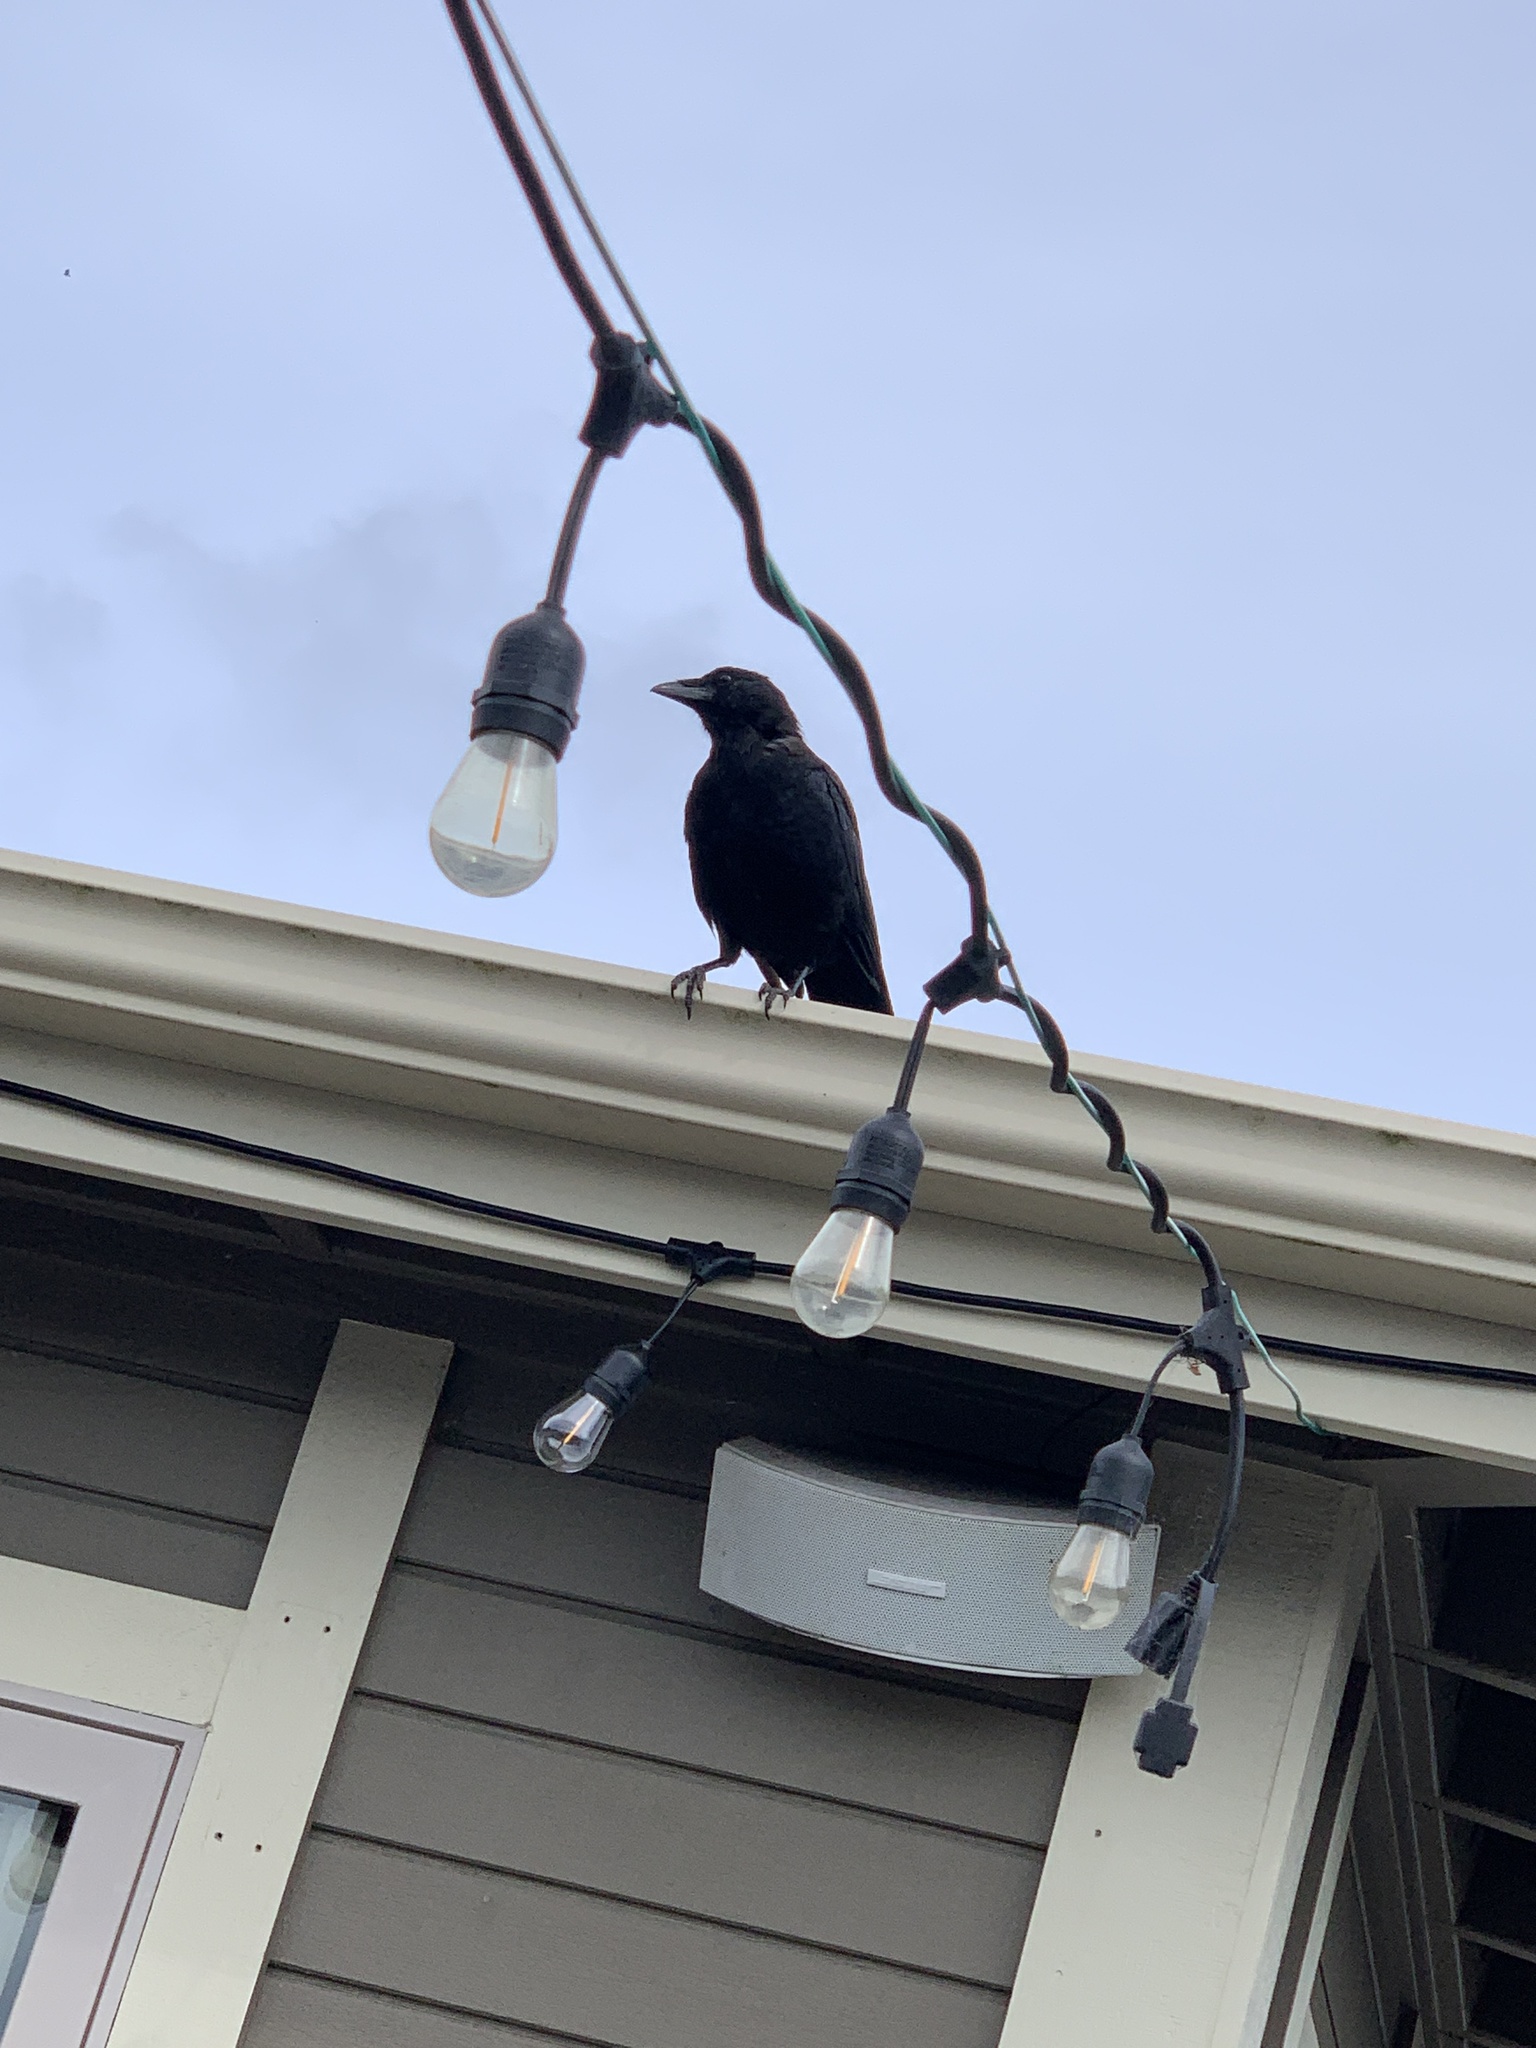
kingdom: Animalia
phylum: Chordata
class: Aves
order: Passeriformes
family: Corvidae
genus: Corvus
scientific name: Corvus brachyrhynchos
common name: American crow
